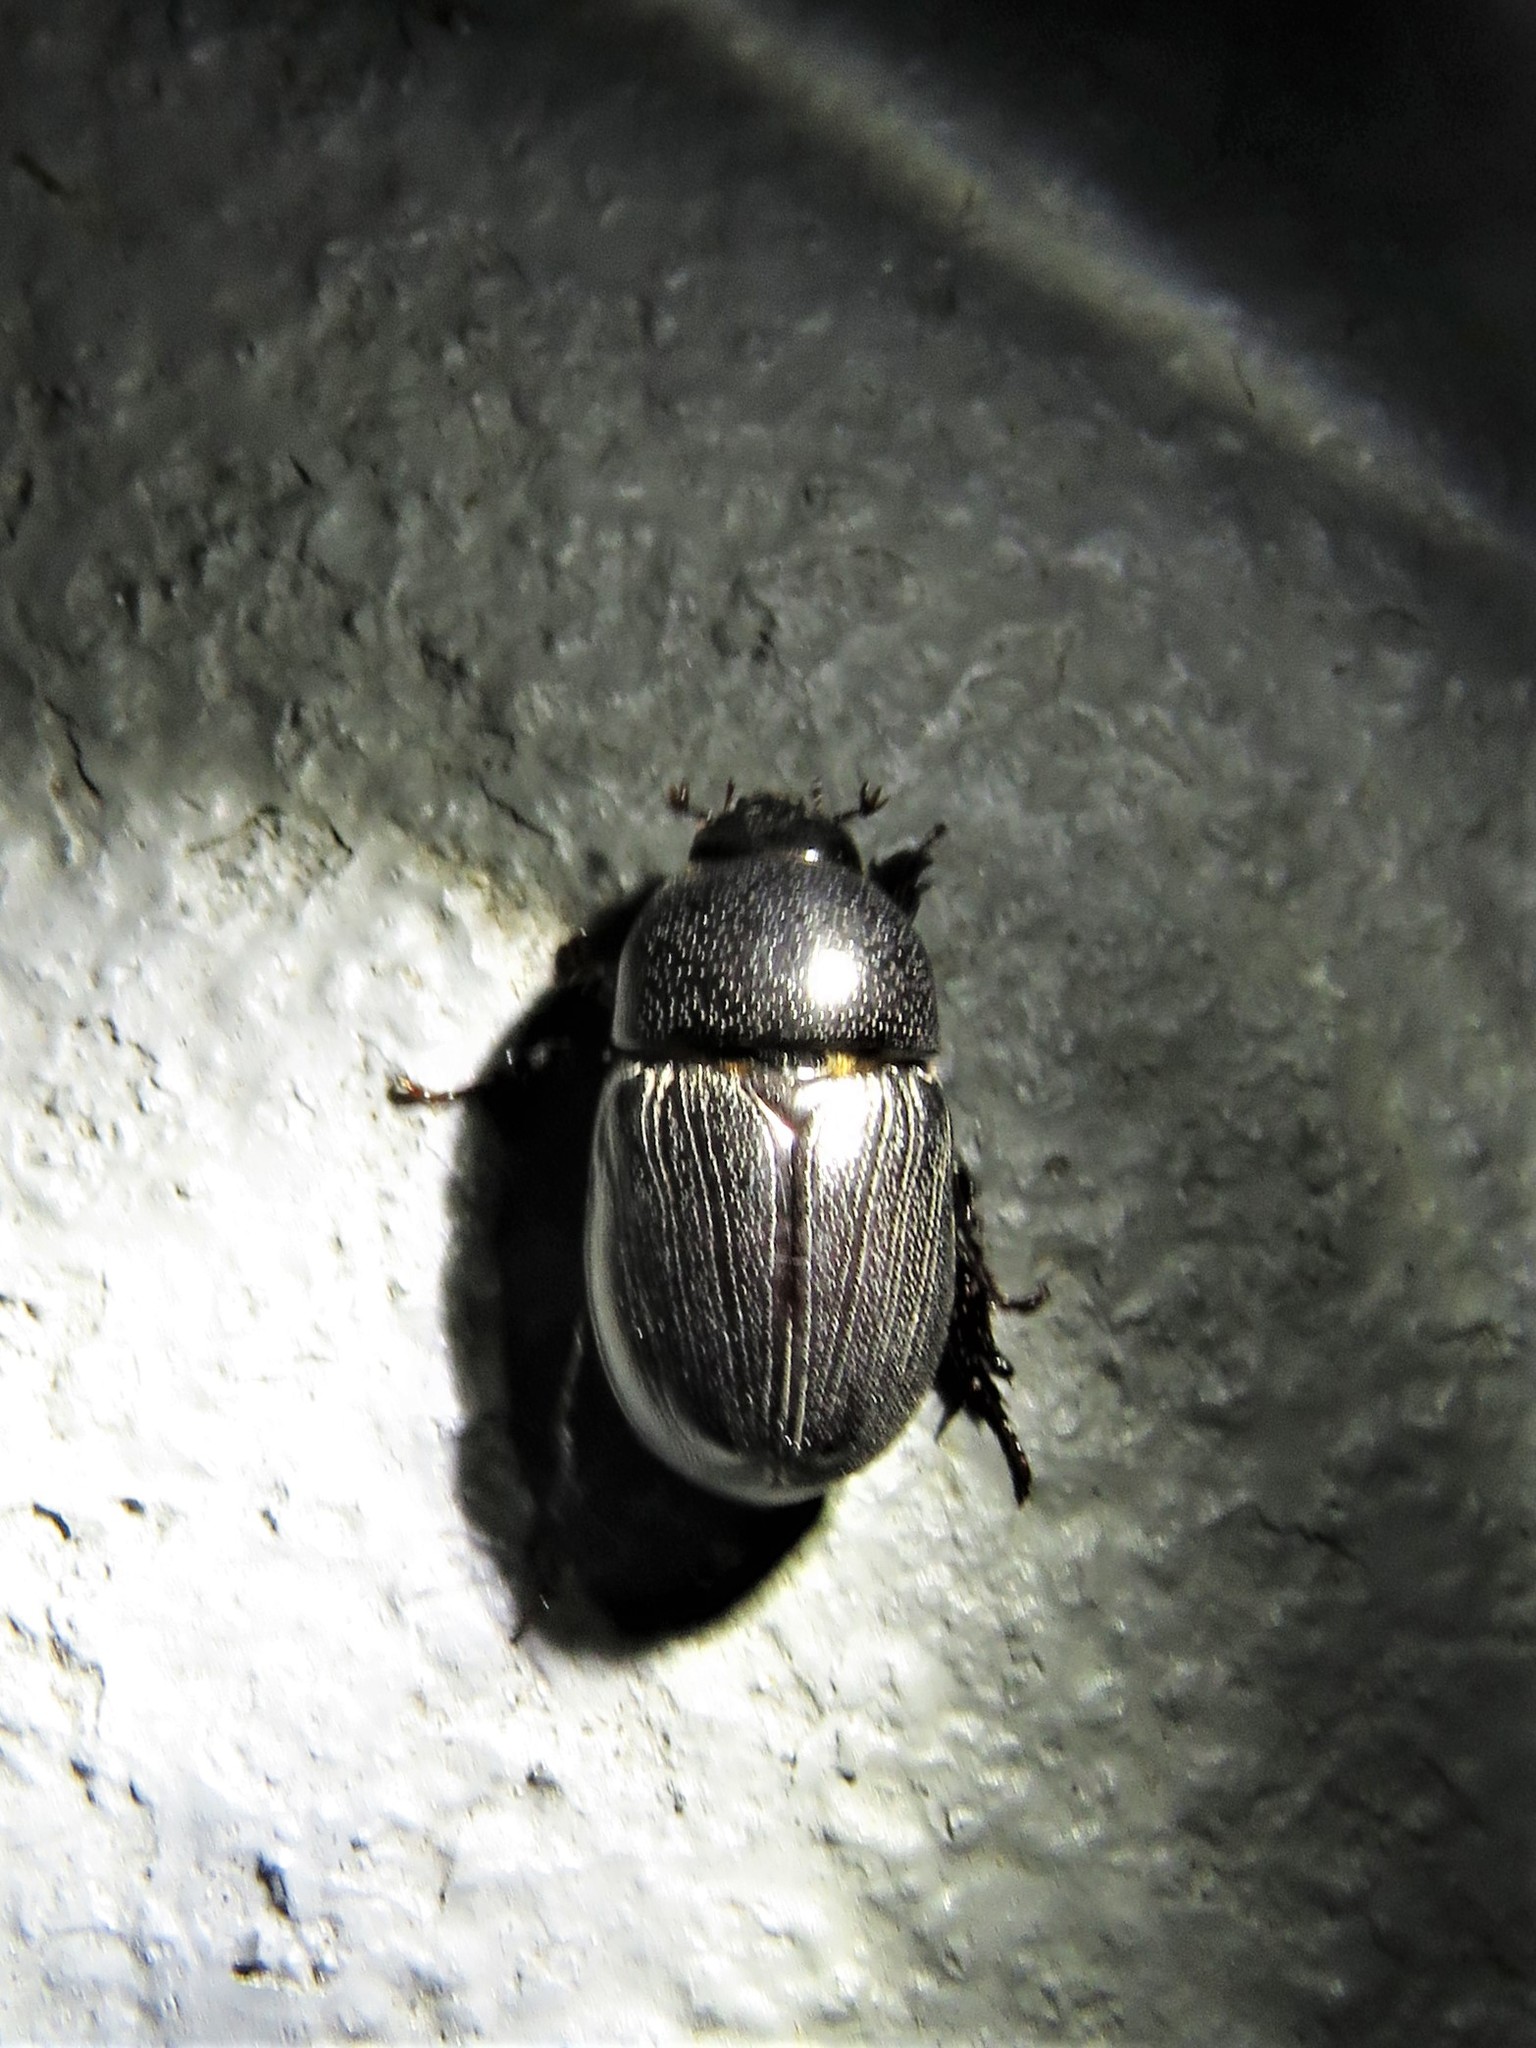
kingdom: Animalia
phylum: Arthropoda
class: Insecta
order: Coleoptera
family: Scarabaeidae
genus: Euetheola
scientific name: Euetheola humilis
